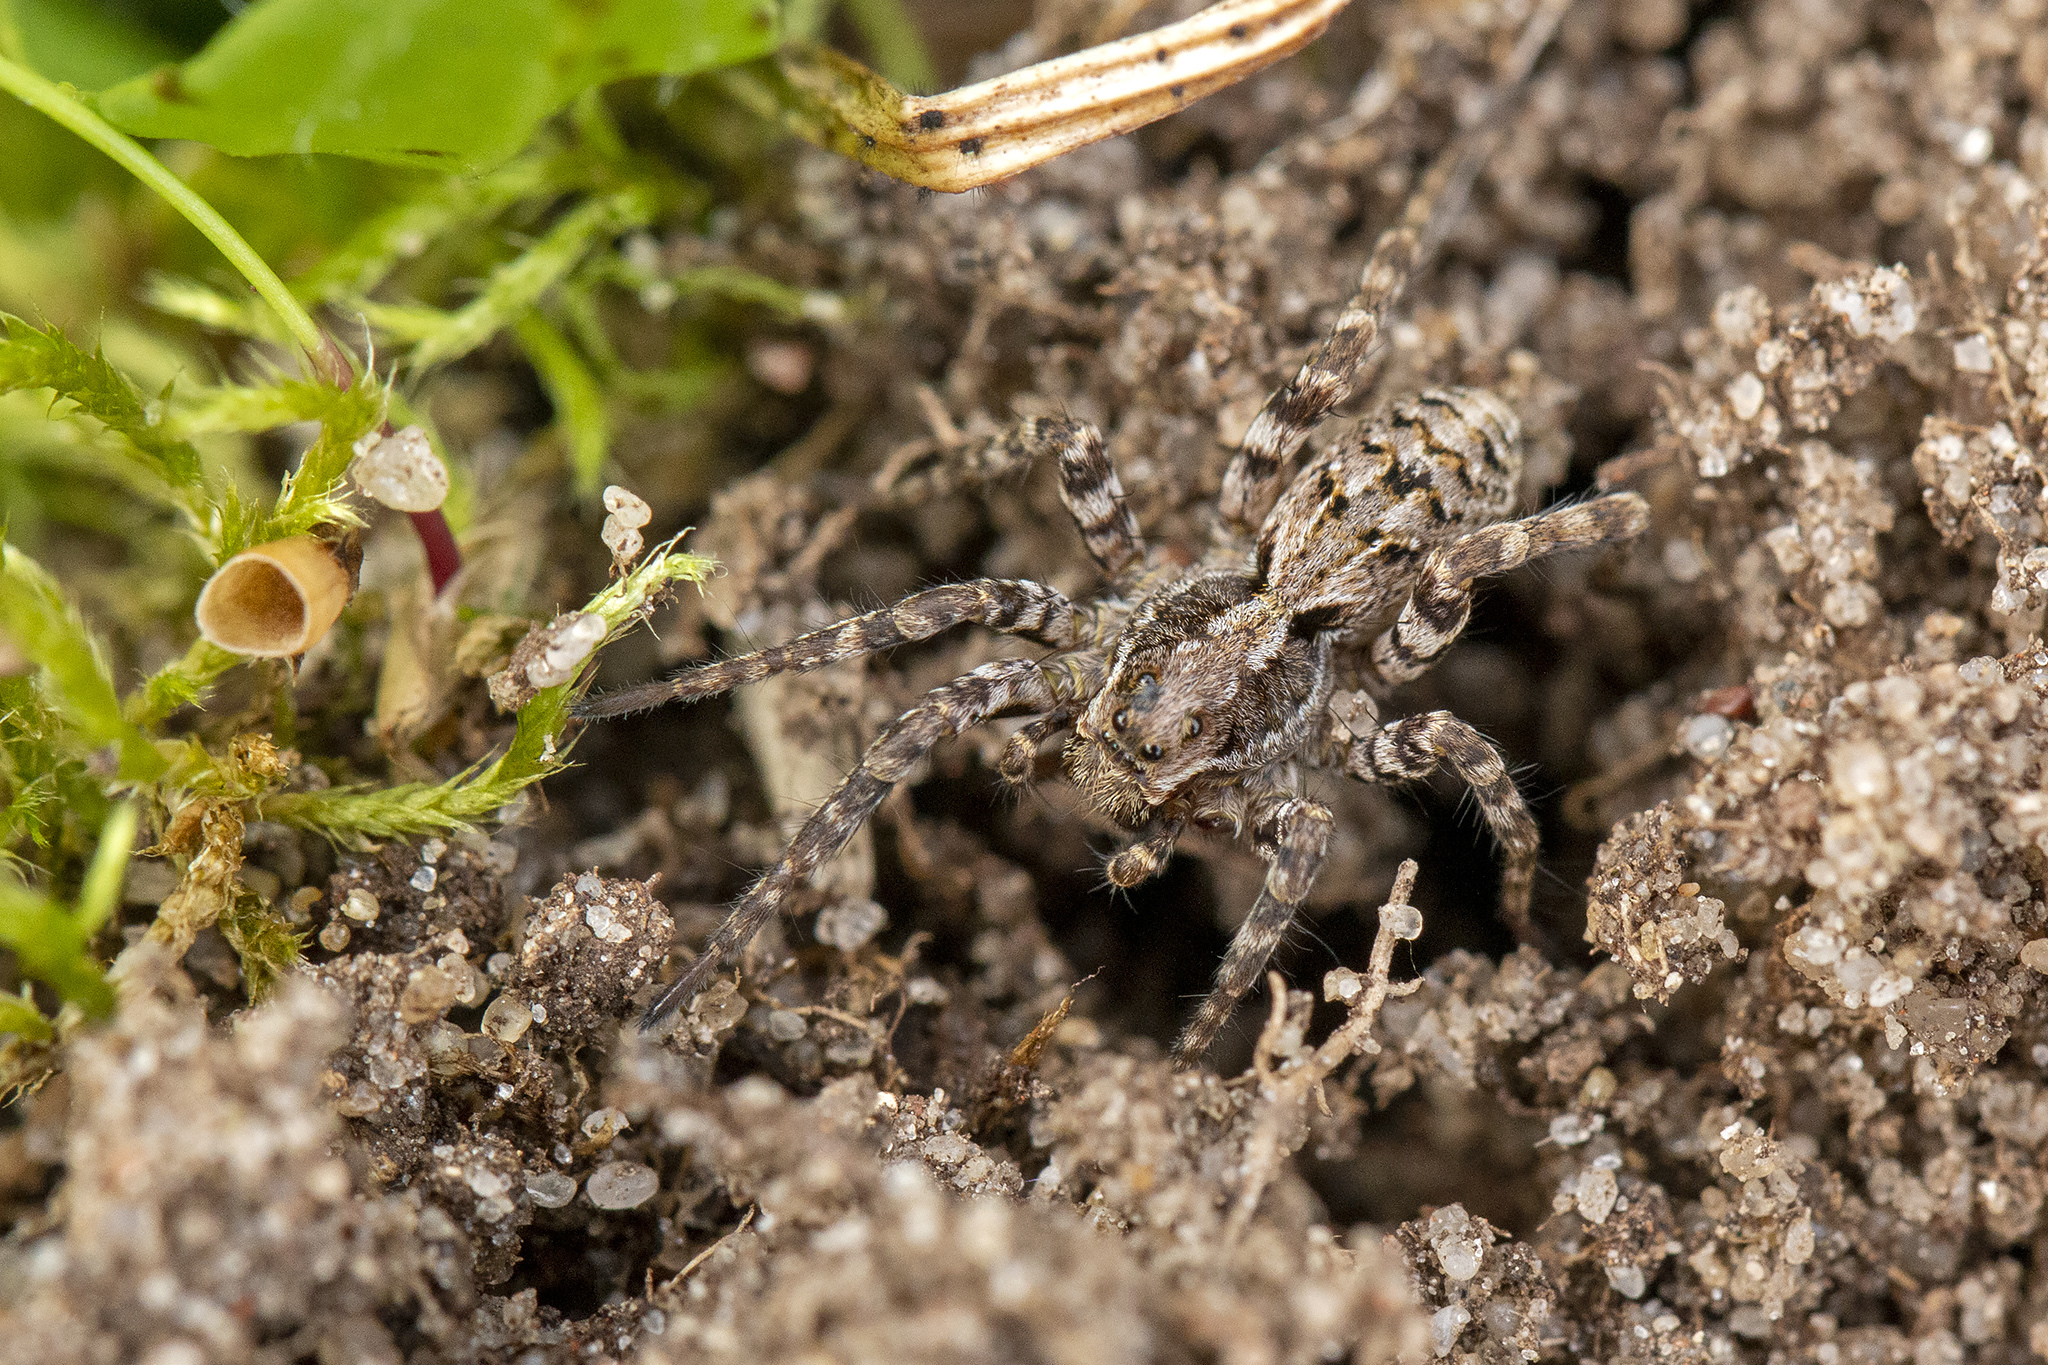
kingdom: Animalia
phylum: Arthropoda
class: Arachnida
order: Araneae
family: Lycosidae
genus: Alopecosa
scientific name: Alopecosa barbipes
